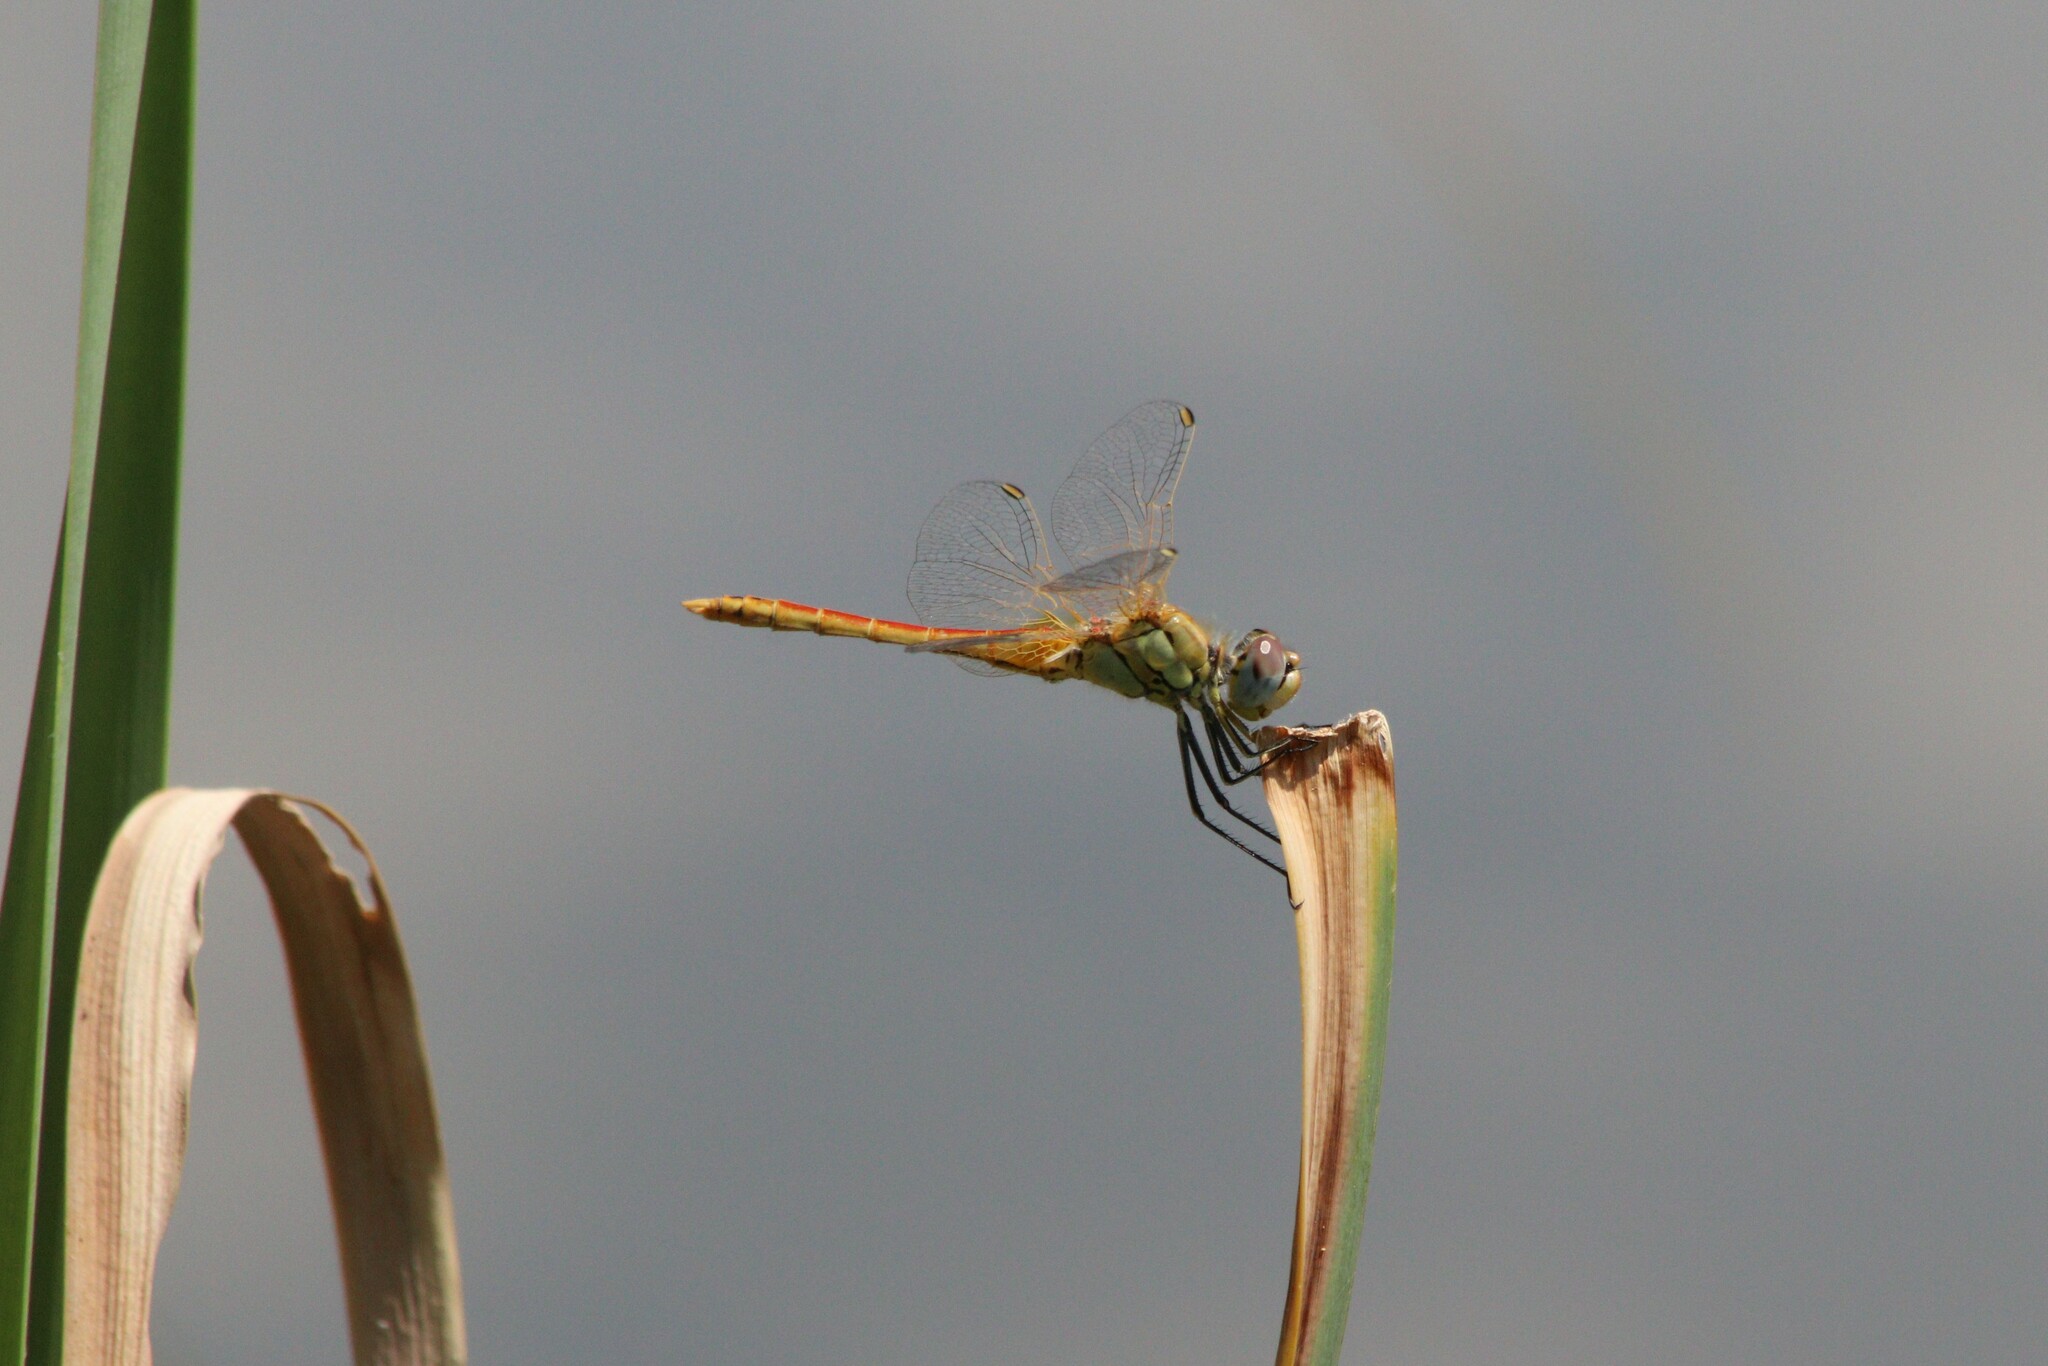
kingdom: Animalia
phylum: Arthropoda
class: Insecta
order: Odonata
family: Libellulidae
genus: Sympetrum
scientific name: Sympetrum fonscolombii
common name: Red-veined darter
